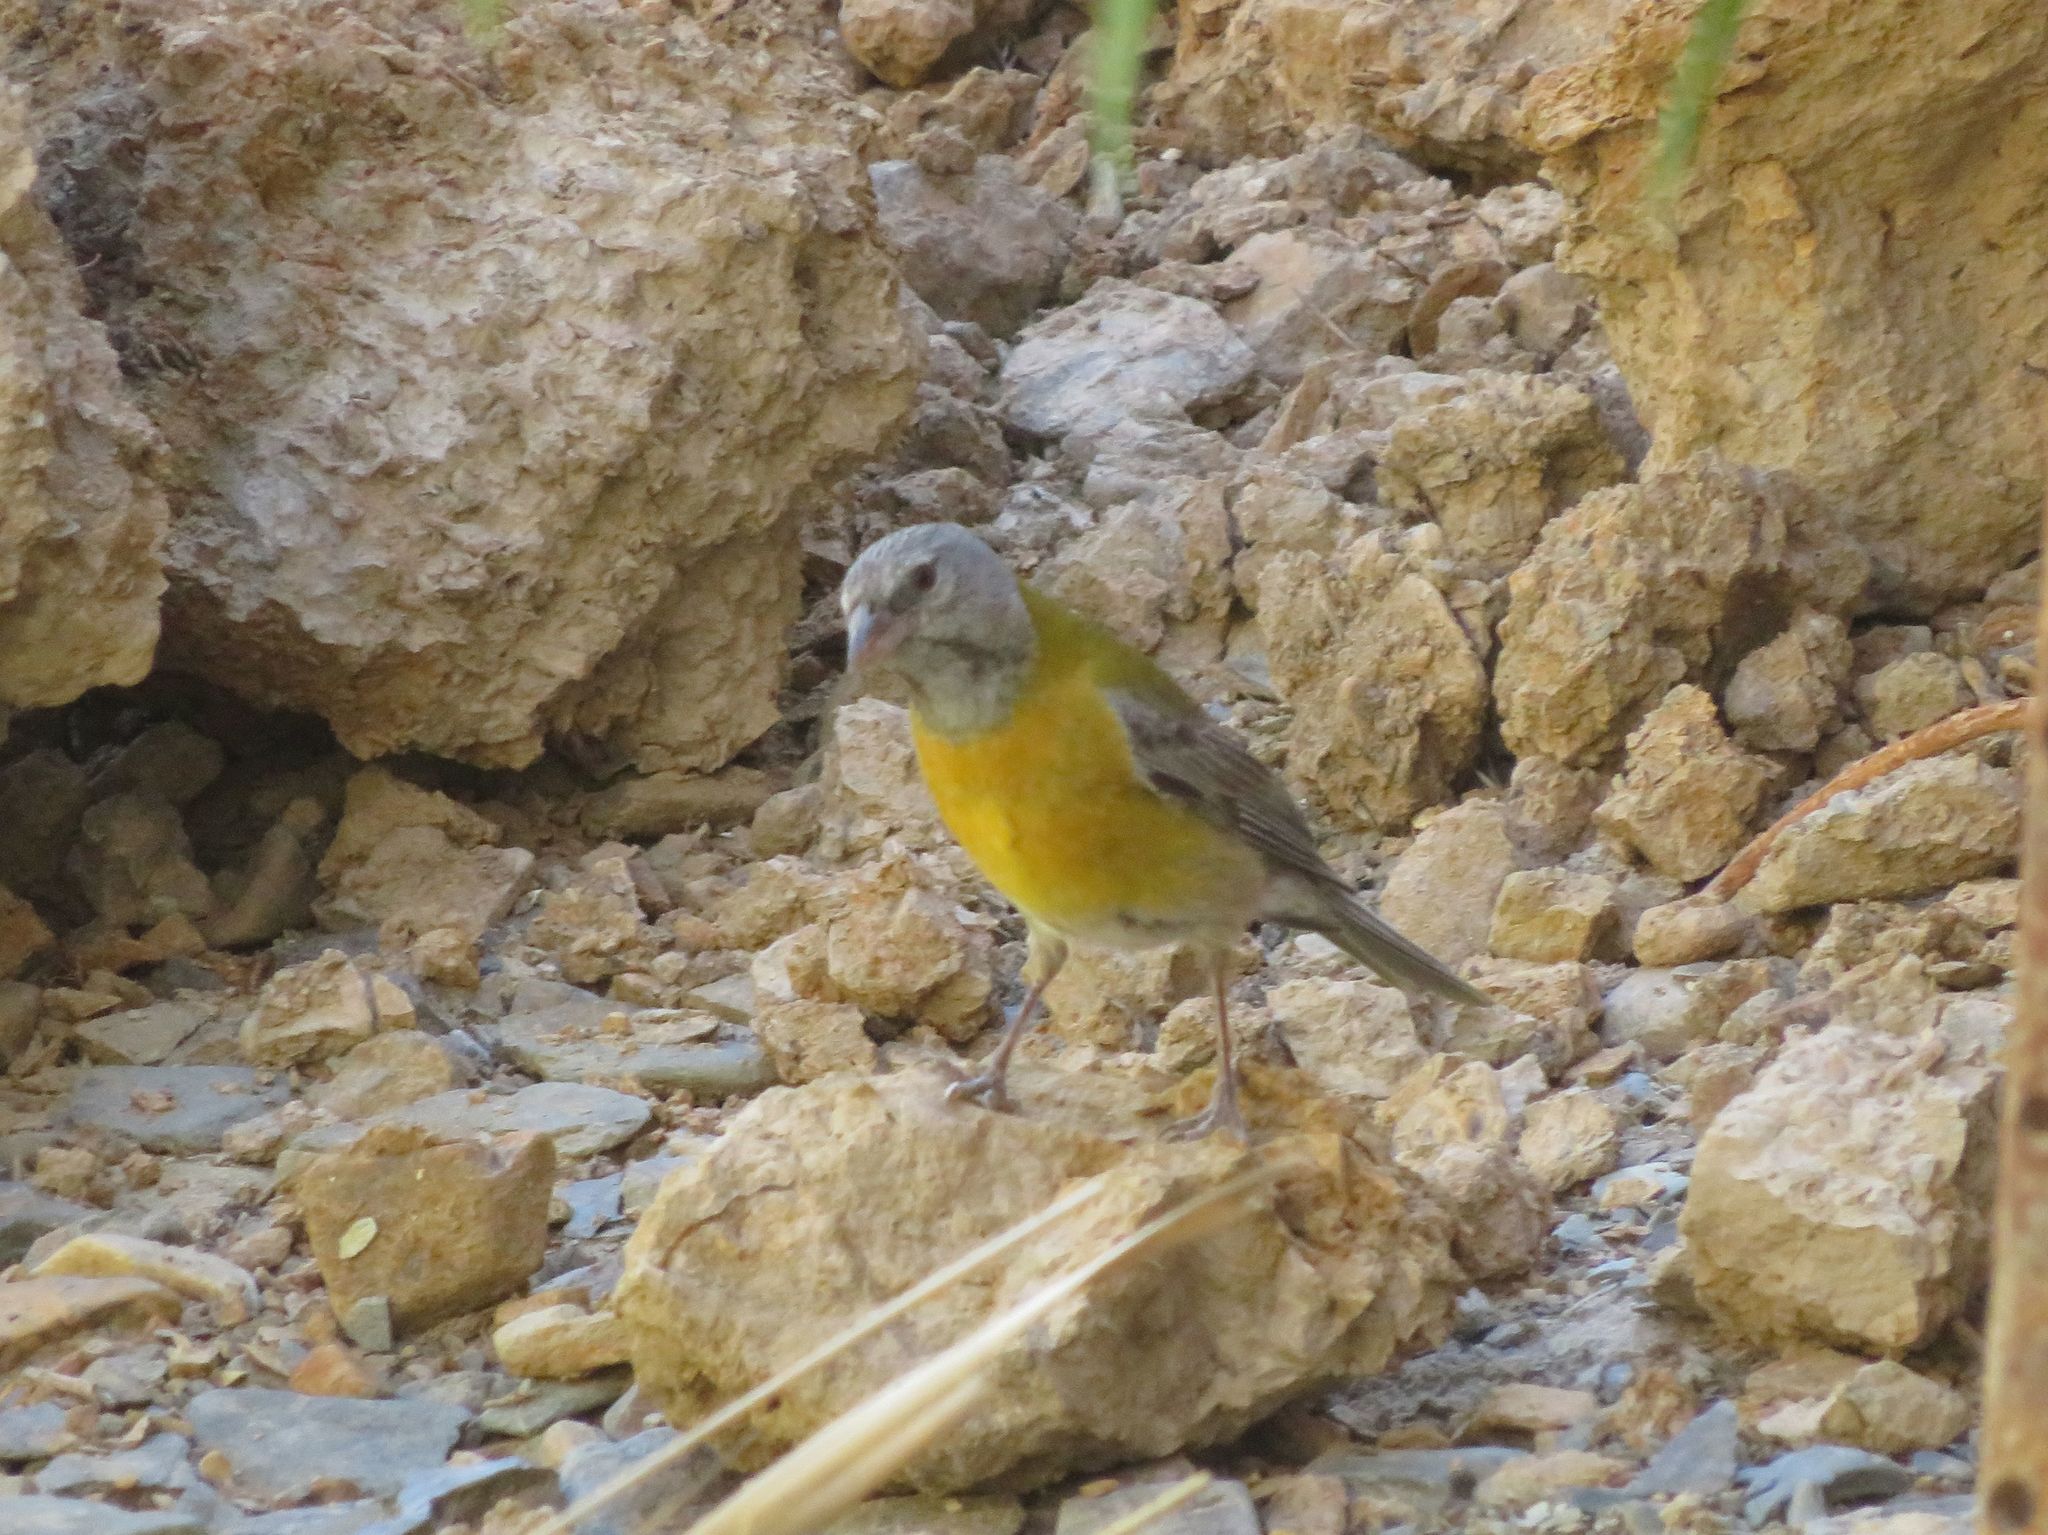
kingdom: Animalia
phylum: Chordata
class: Aves
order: Passeriformes
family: Thraupidae
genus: Phrygilus
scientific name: Phrygilus gayi
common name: Grey-hooded sierra finch
